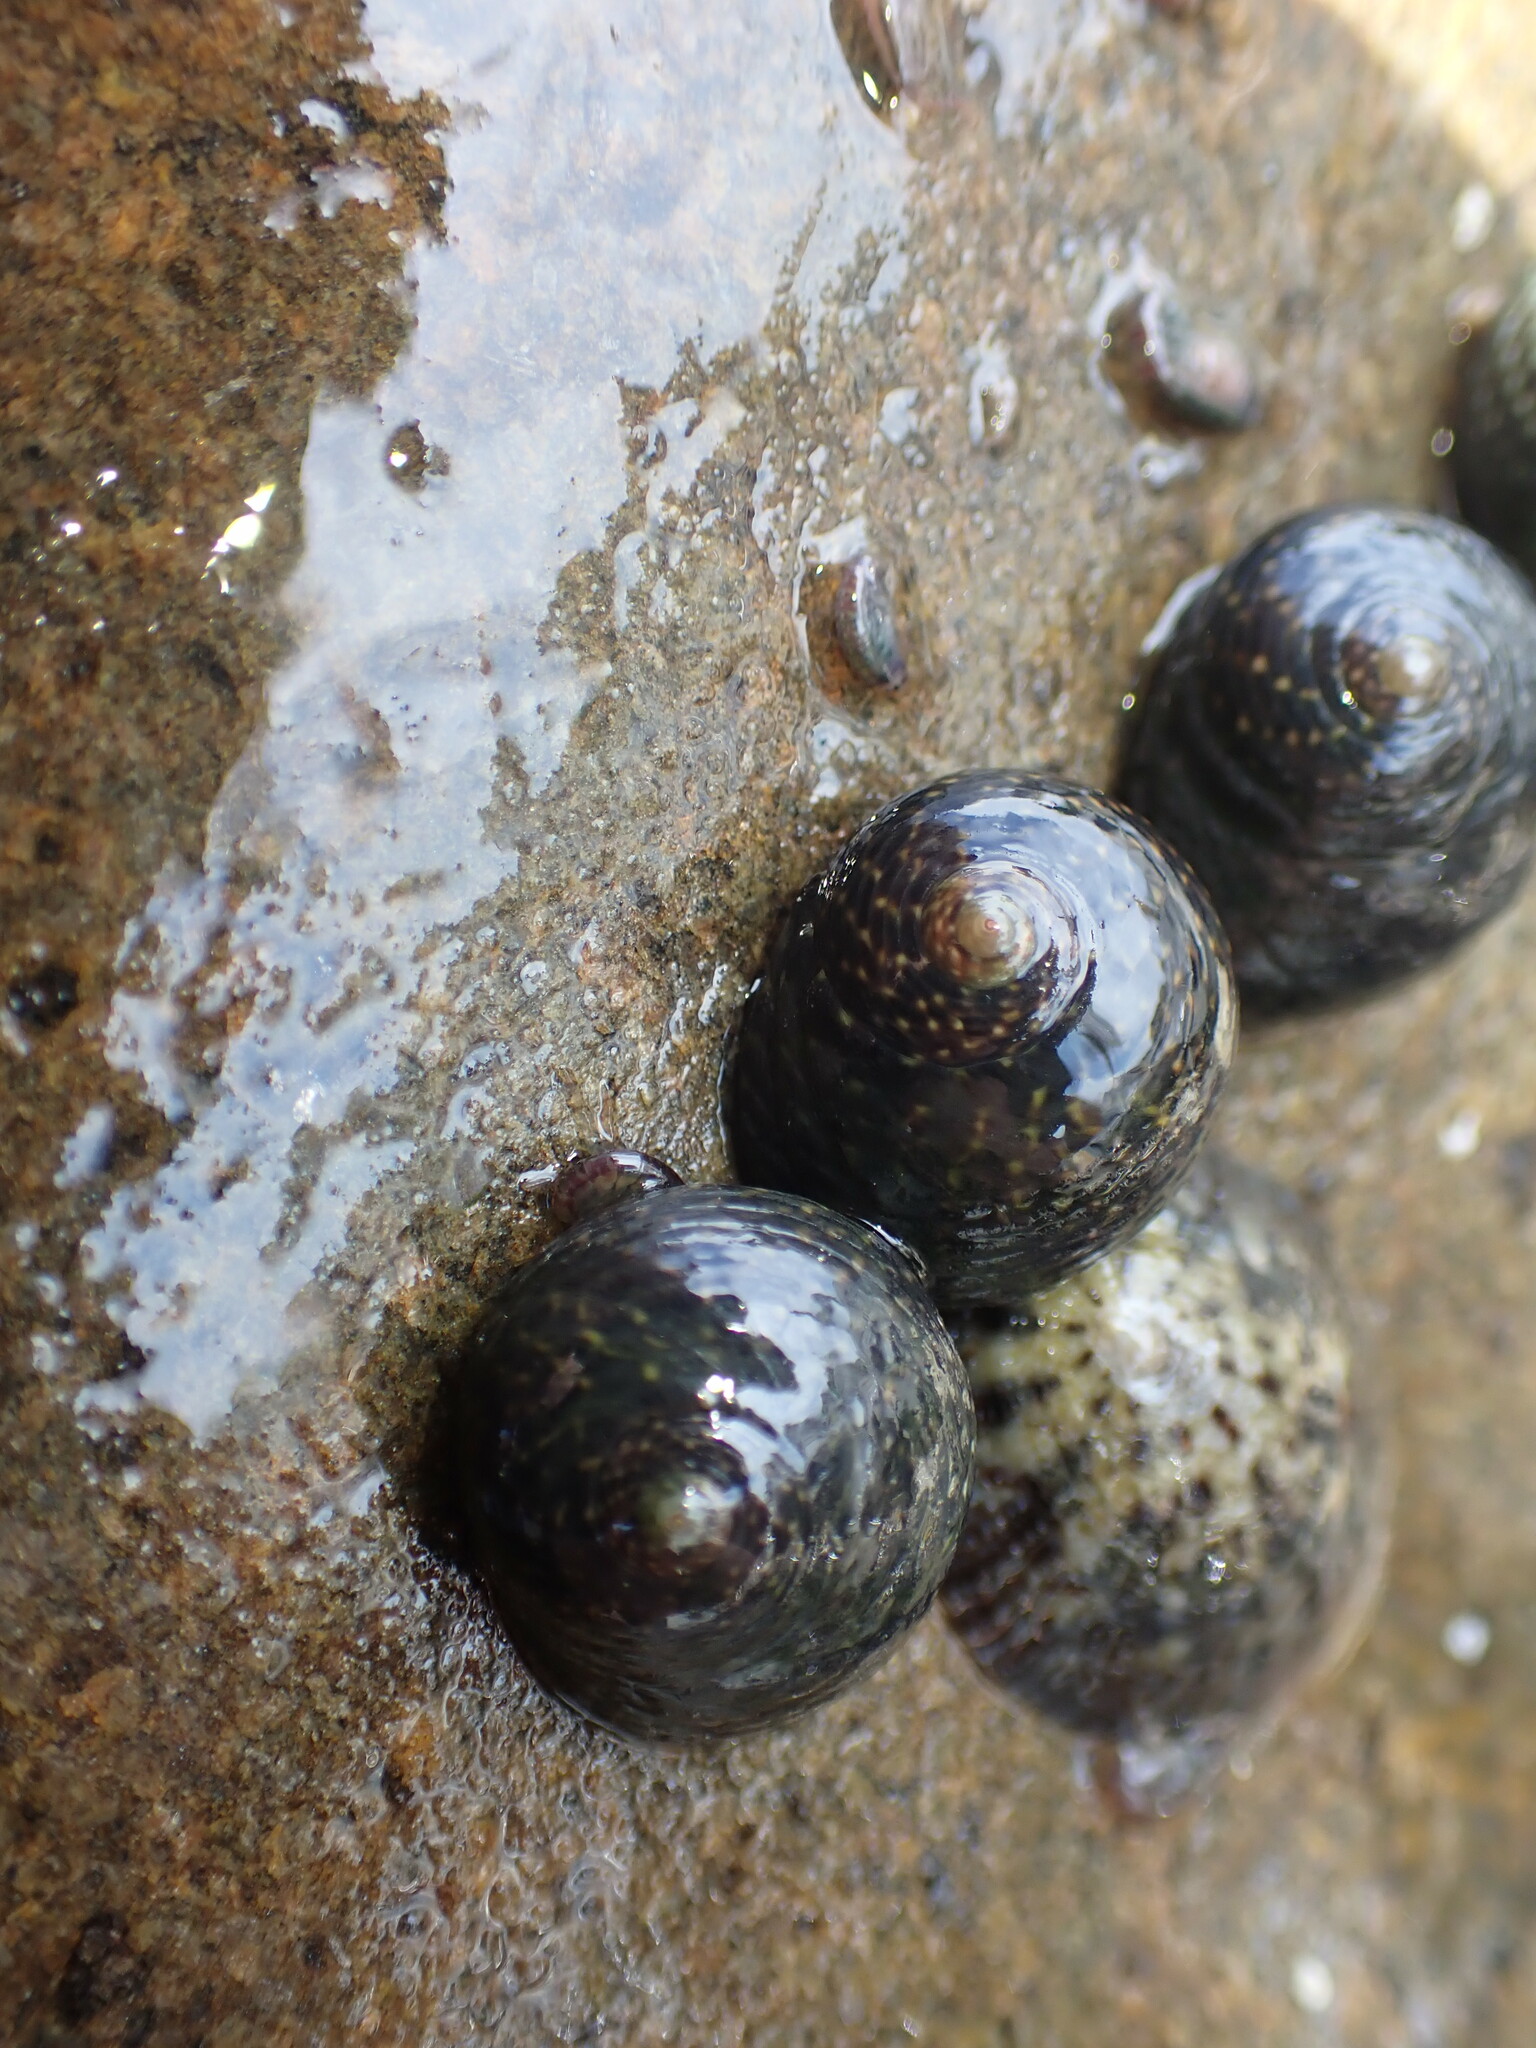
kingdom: Animalia
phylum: Mollusca
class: Gastropoda
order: Trochida
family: Trochidae
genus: Diloma
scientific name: Diloma aridum
